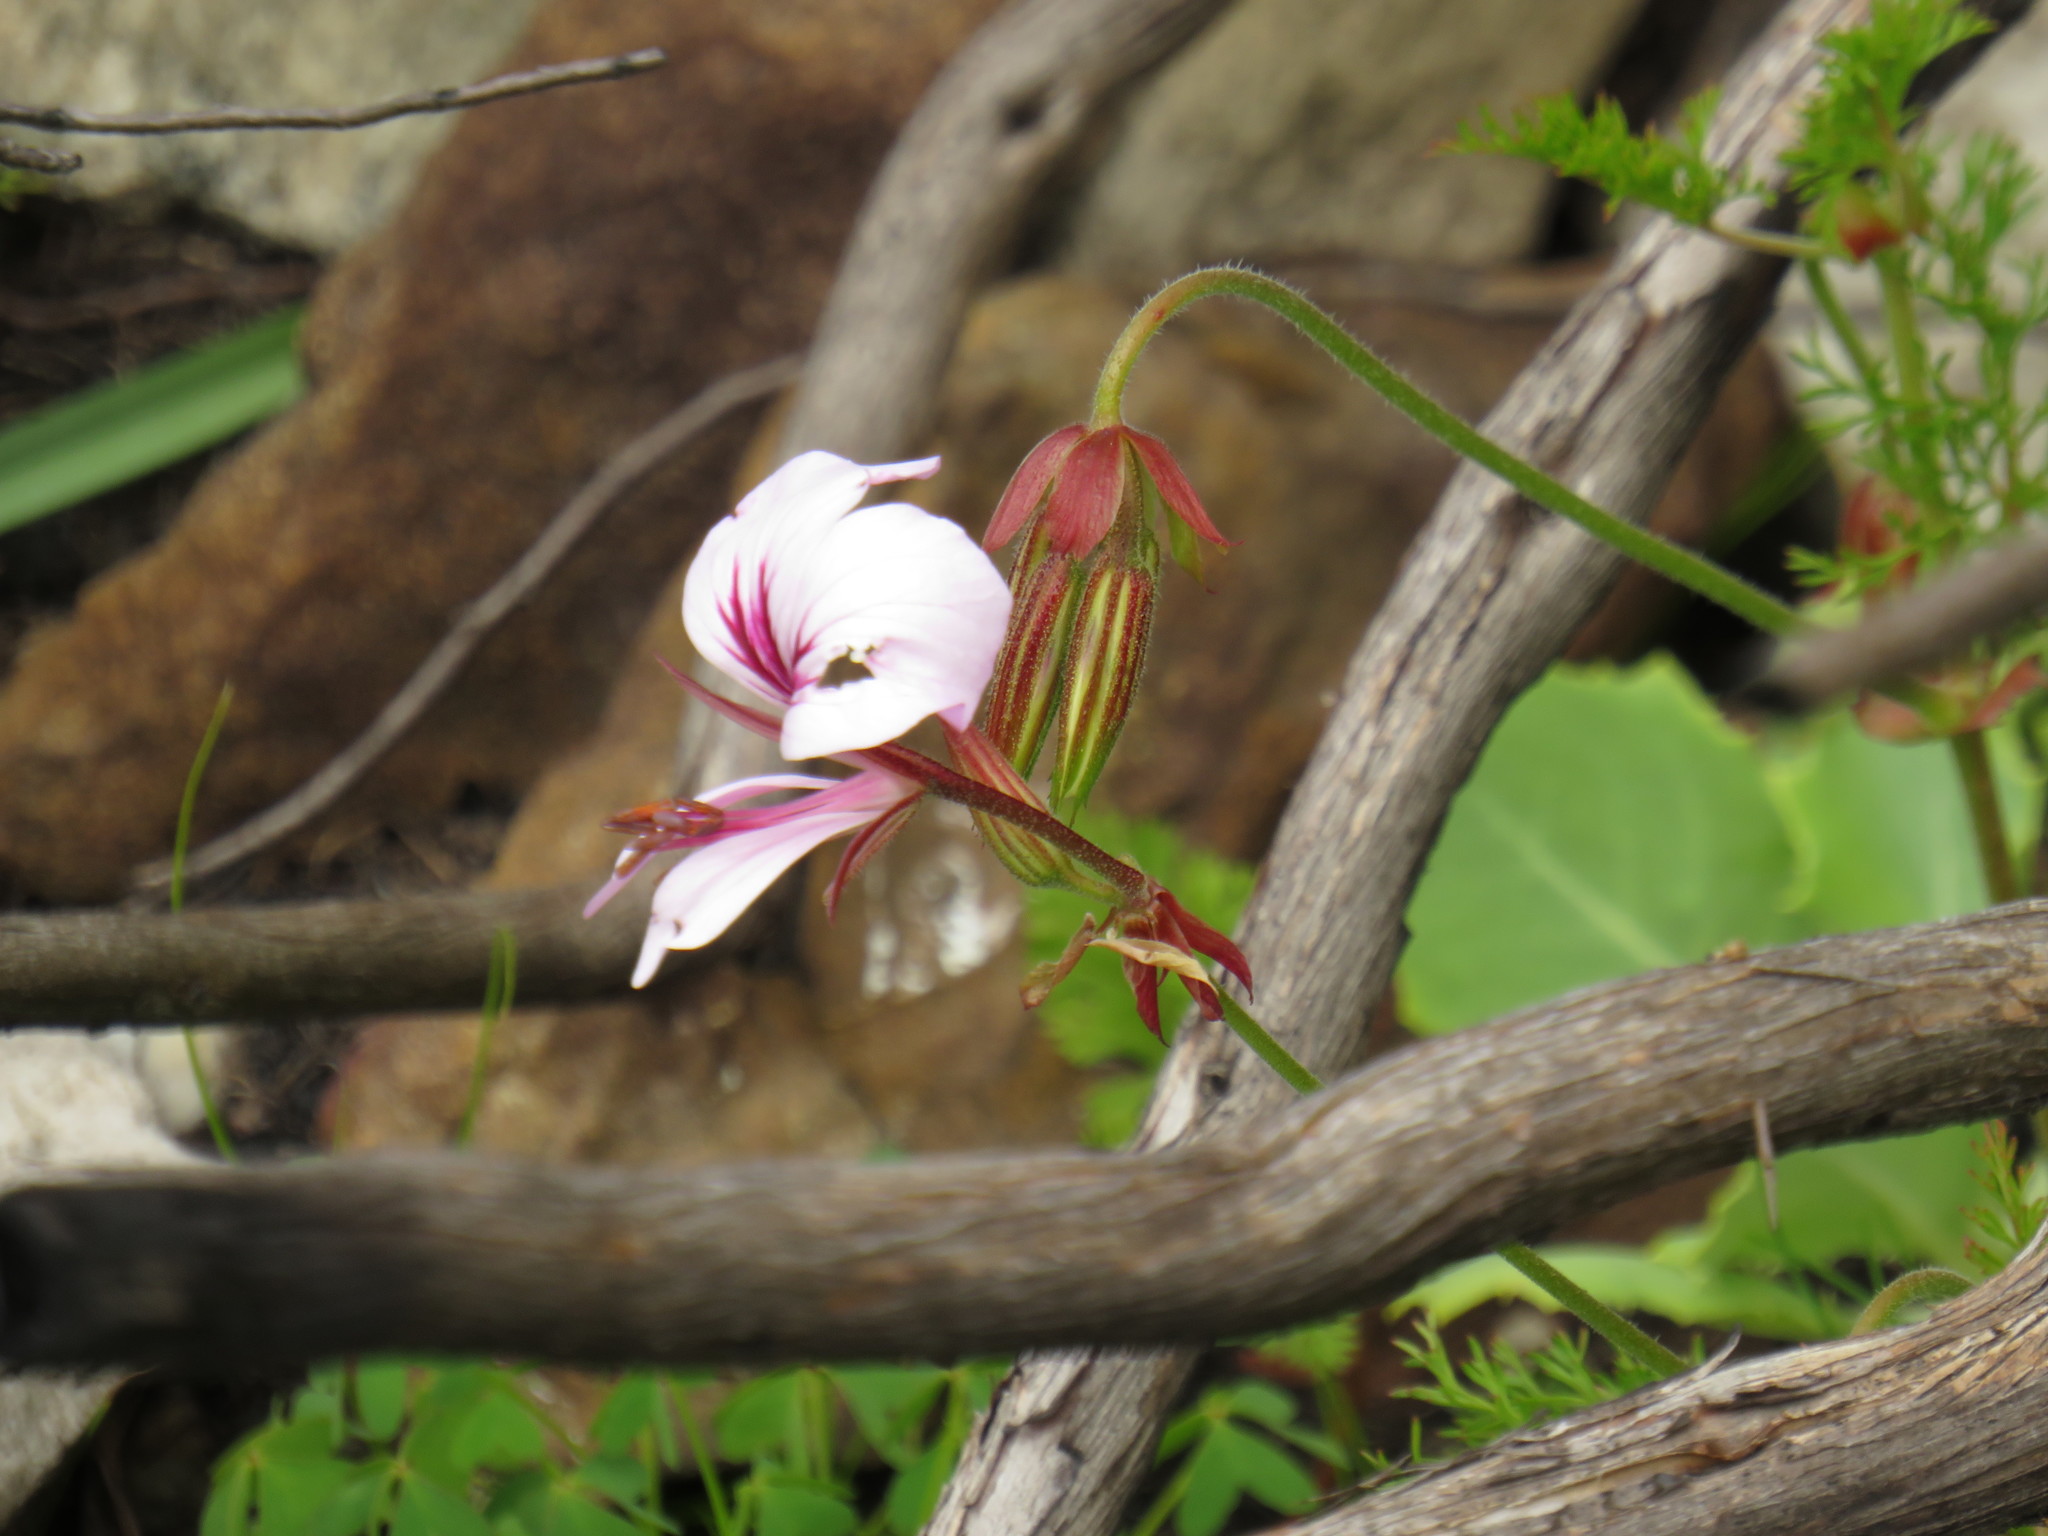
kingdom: Plantae
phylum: Tracheophyta
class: Magnoliopsida
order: Geraniales
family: Geraniaceae
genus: Pelargonium
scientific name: Pelargonium myrrhifolium
